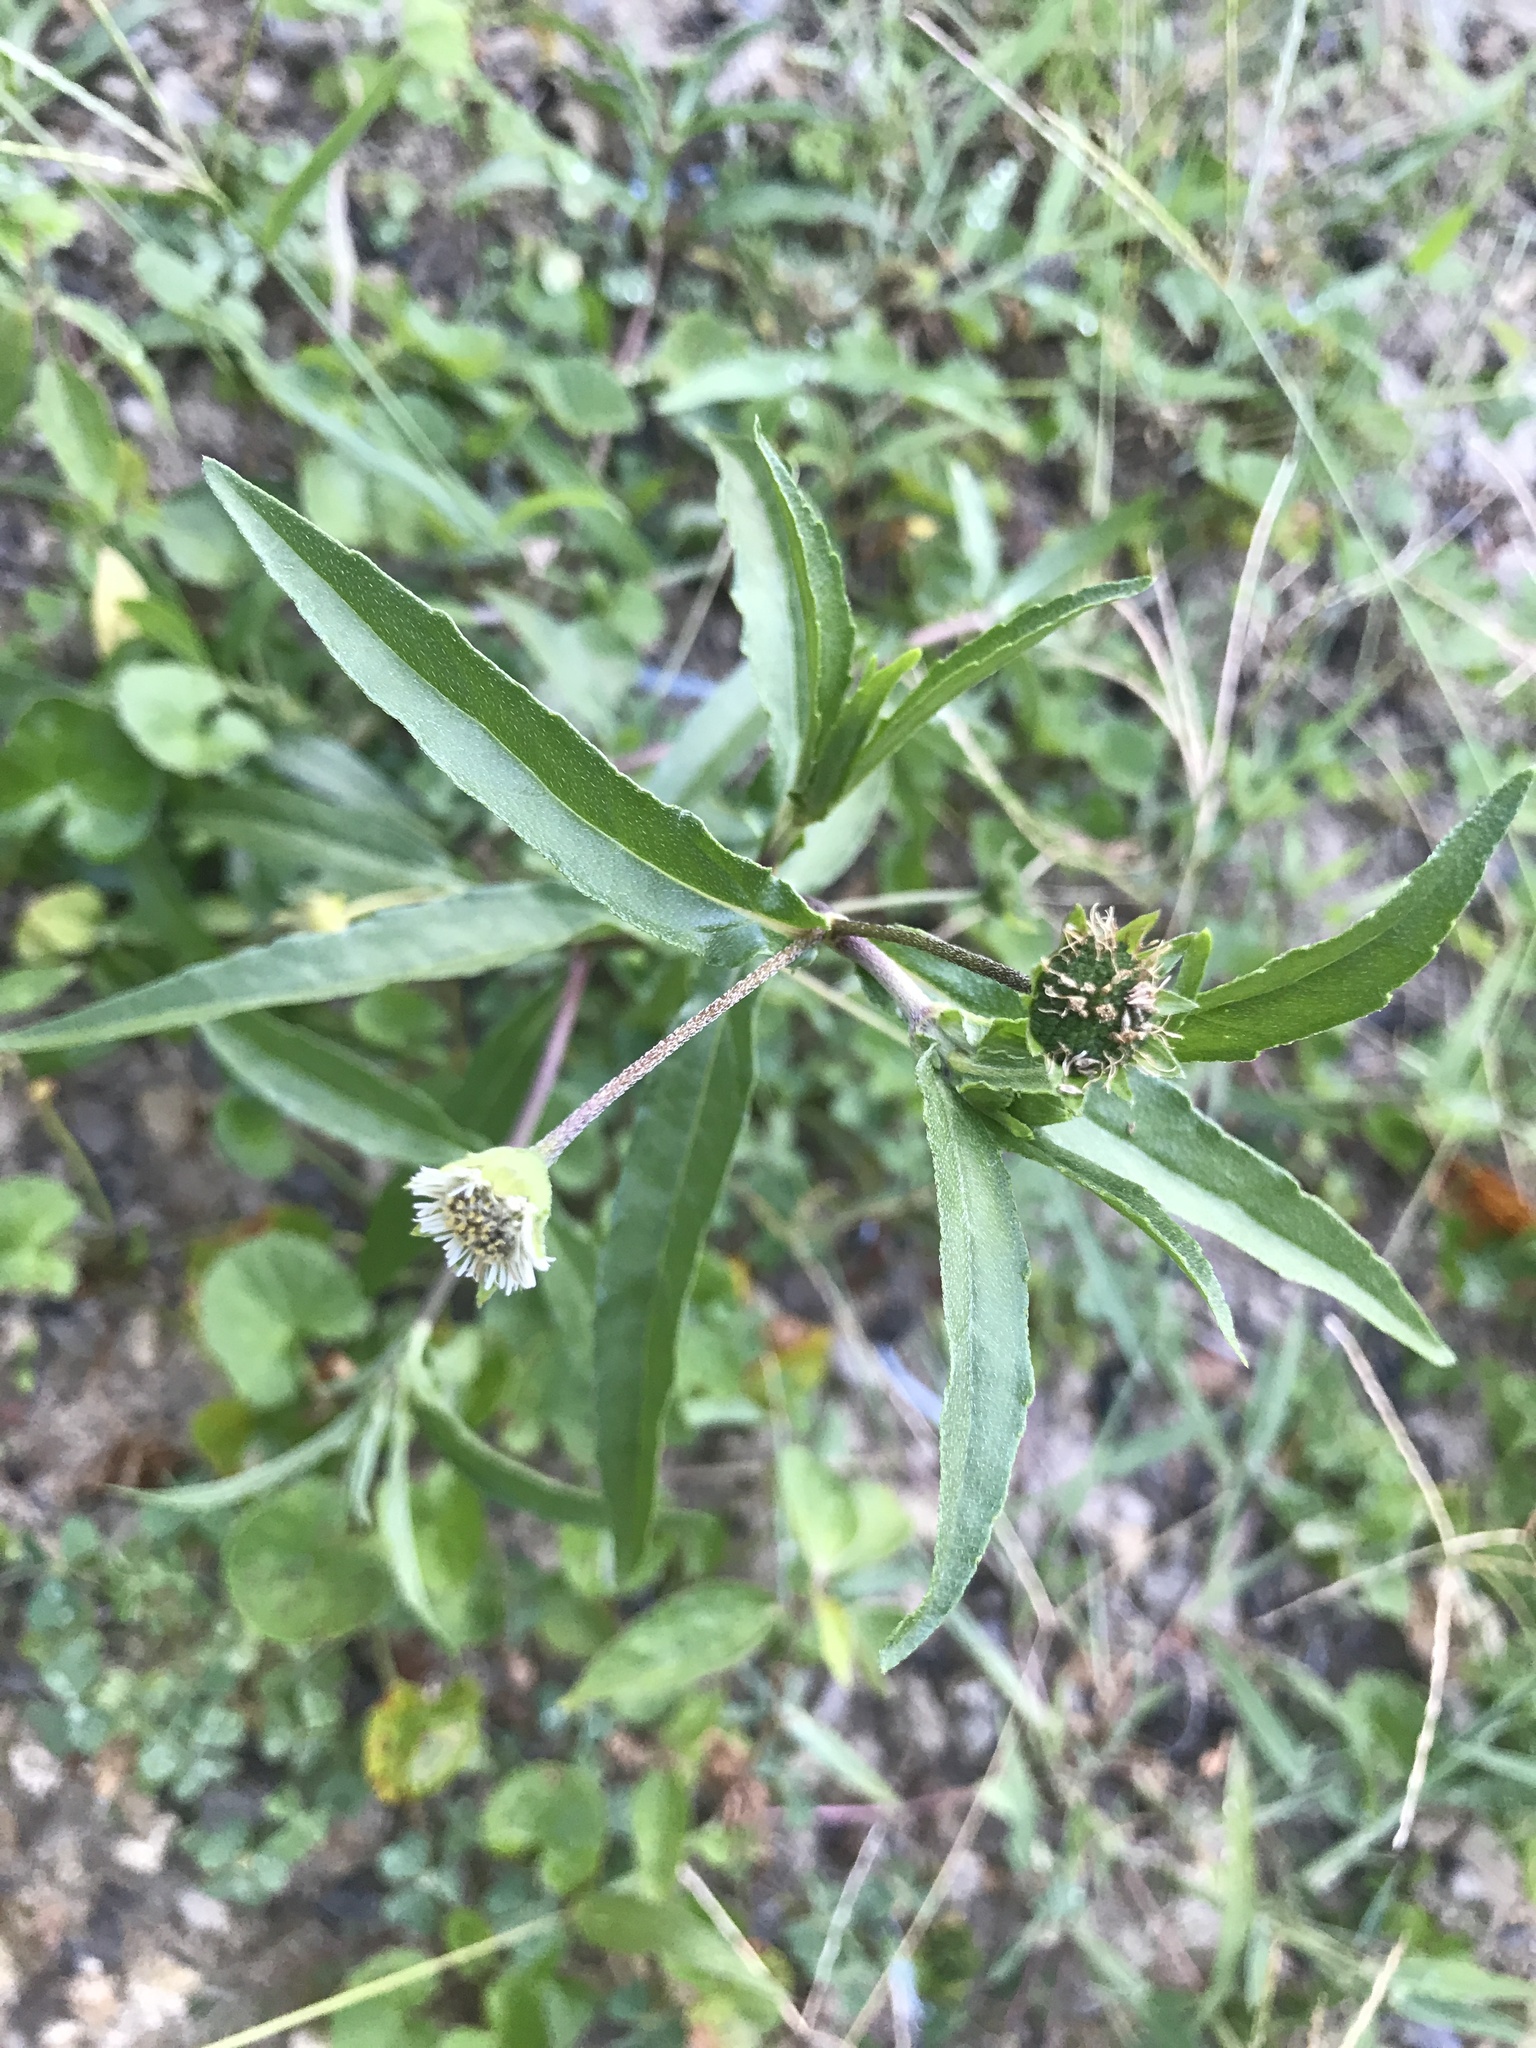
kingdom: Plantae
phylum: Tracheophyta
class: Magnoliopsida
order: Asterales
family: Asteraceae
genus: Eclipta
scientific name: Eclipta prostrata
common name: False daisy
